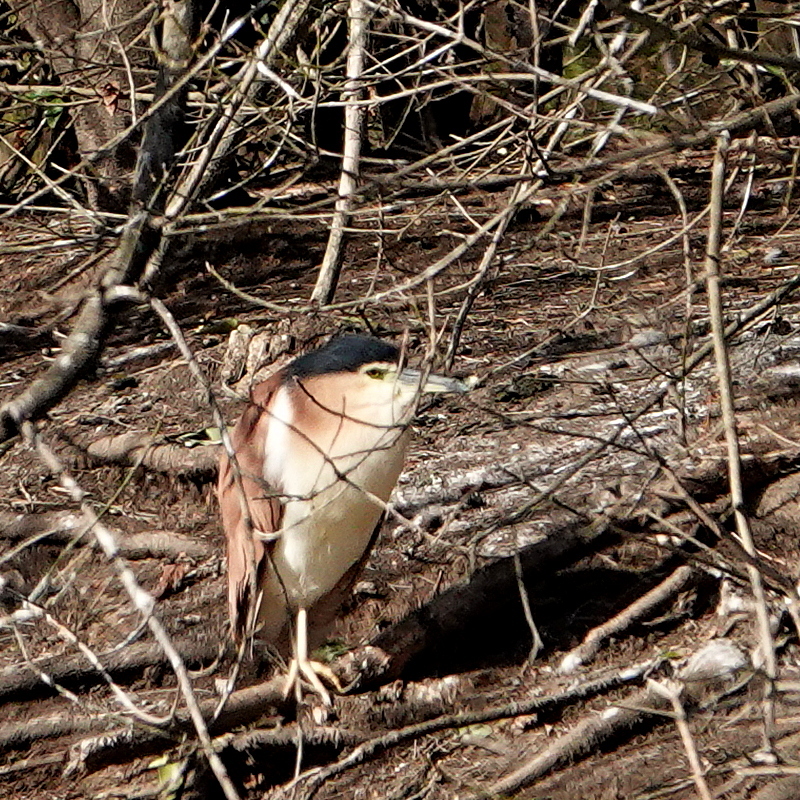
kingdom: Animalia
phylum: Chordata
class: Aves
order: Pelecaniformes
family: Ardeidae
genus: Nycticorax
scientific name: Nycticorax caledonicus
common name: Rufous night-heron
